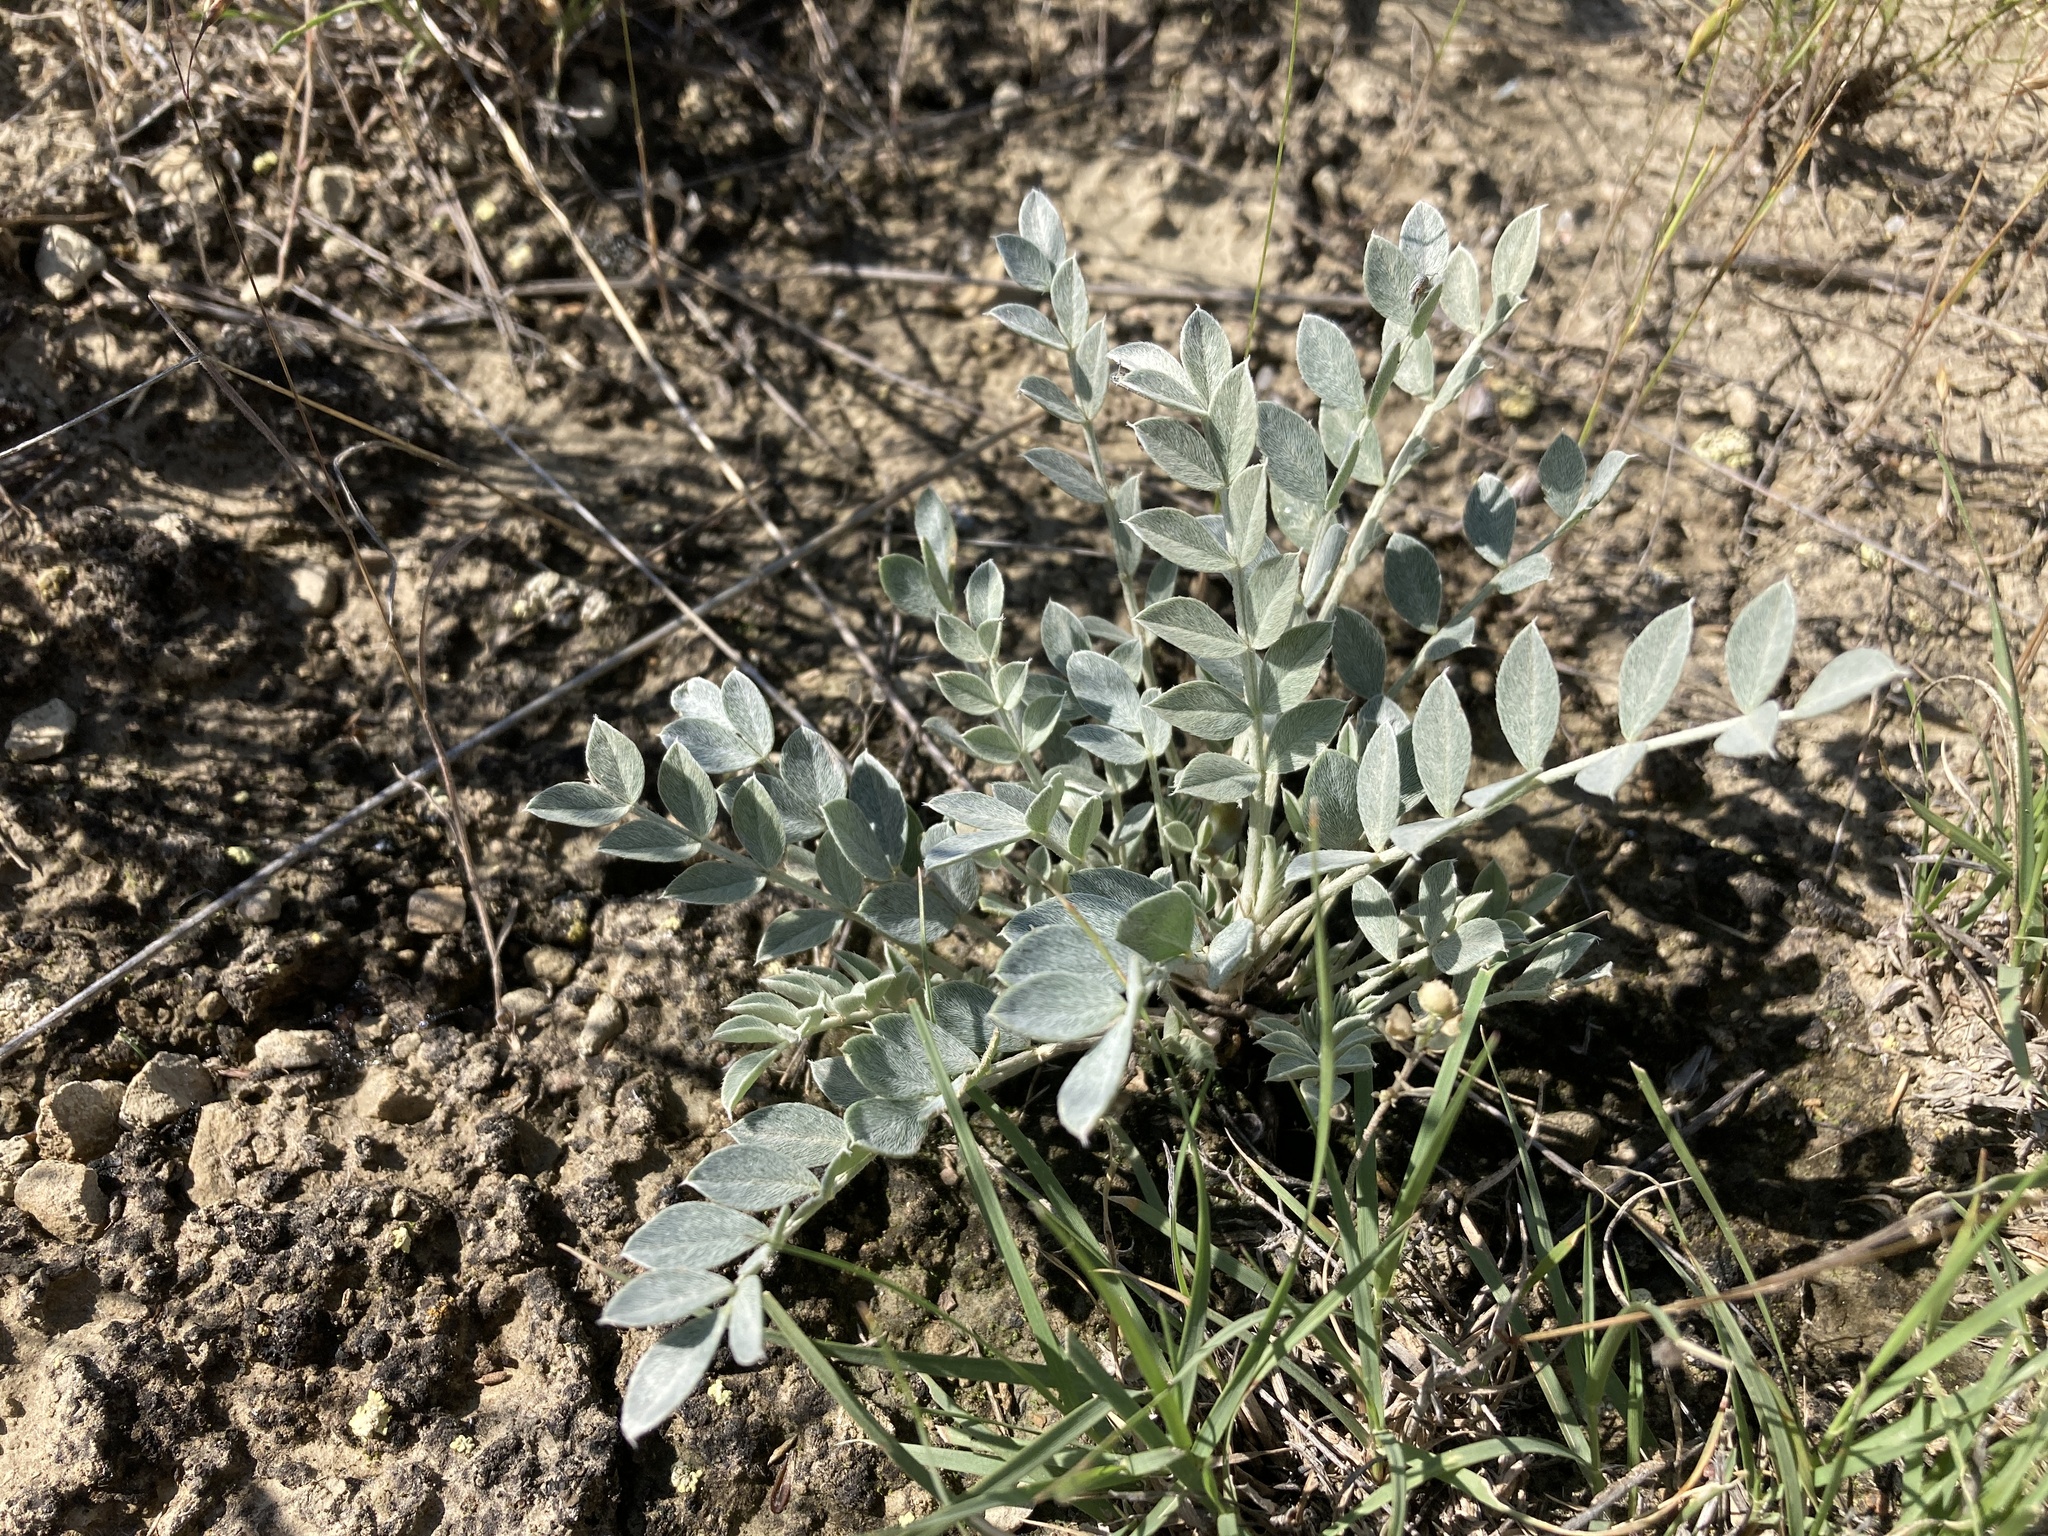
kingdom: Plantae
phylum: Tracheophyta
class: Magnoliopsida
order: Fabales
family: Fabaceae
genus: Astragalus
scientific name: Astragalus missouriensis
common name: Missouri milk-vetch
